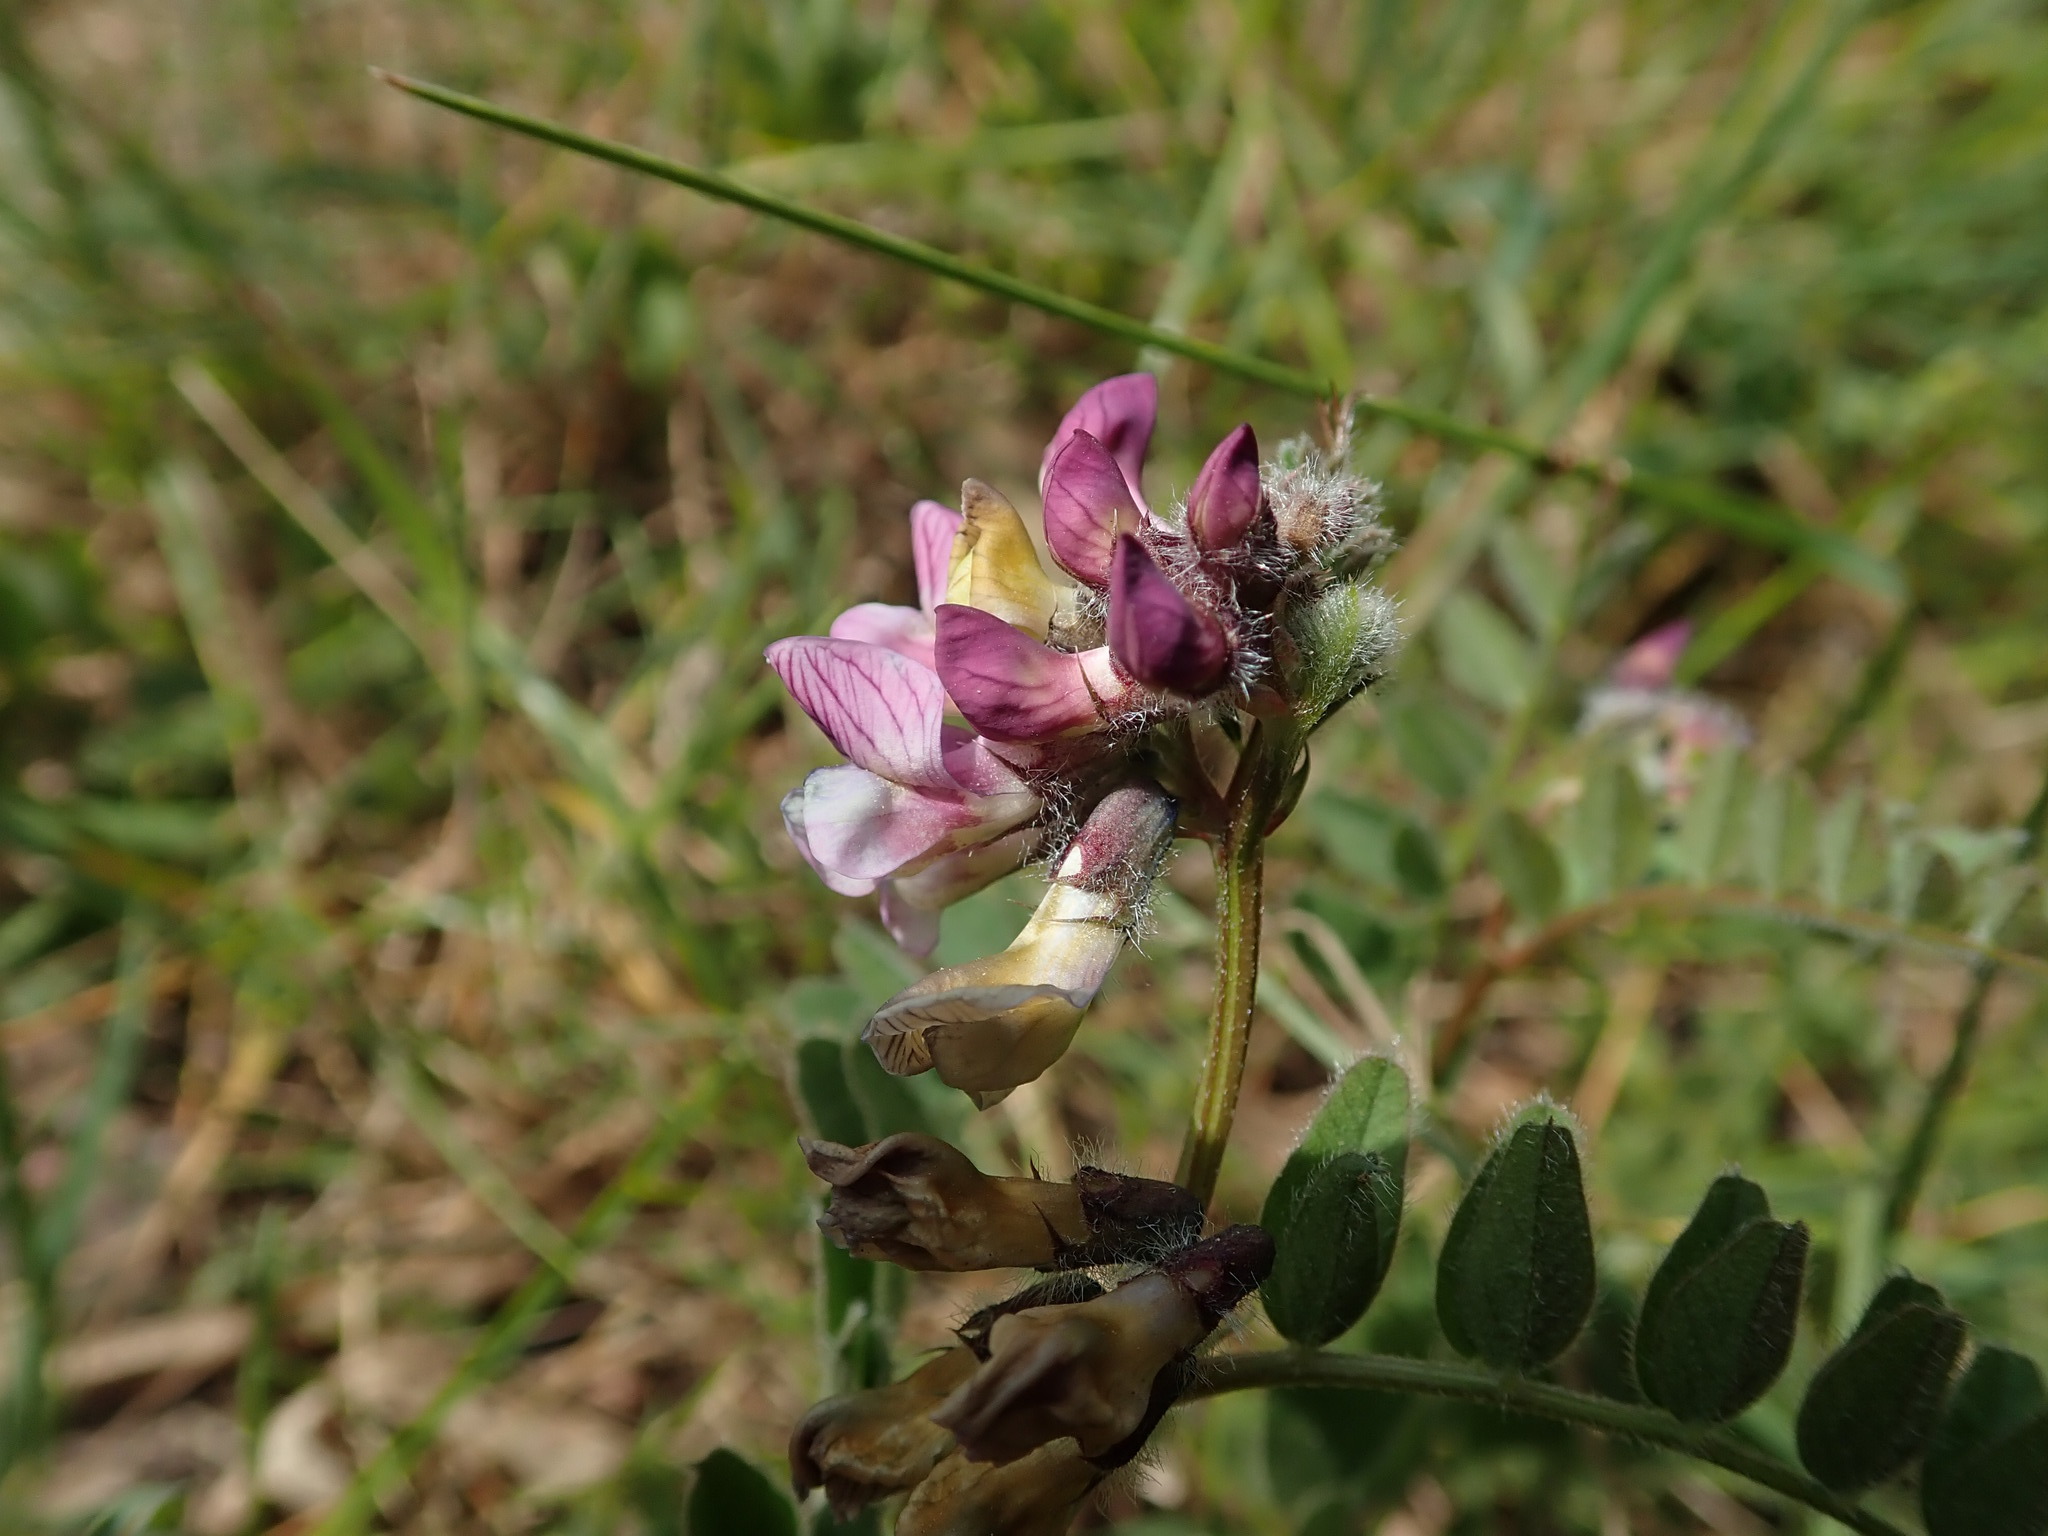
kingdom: Plantae
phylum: Tracheophyta
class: Magnoliopsida
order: Fabales
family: Fabaceae
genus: Vicia
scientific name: Vicia sepium
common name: Bush vetch
